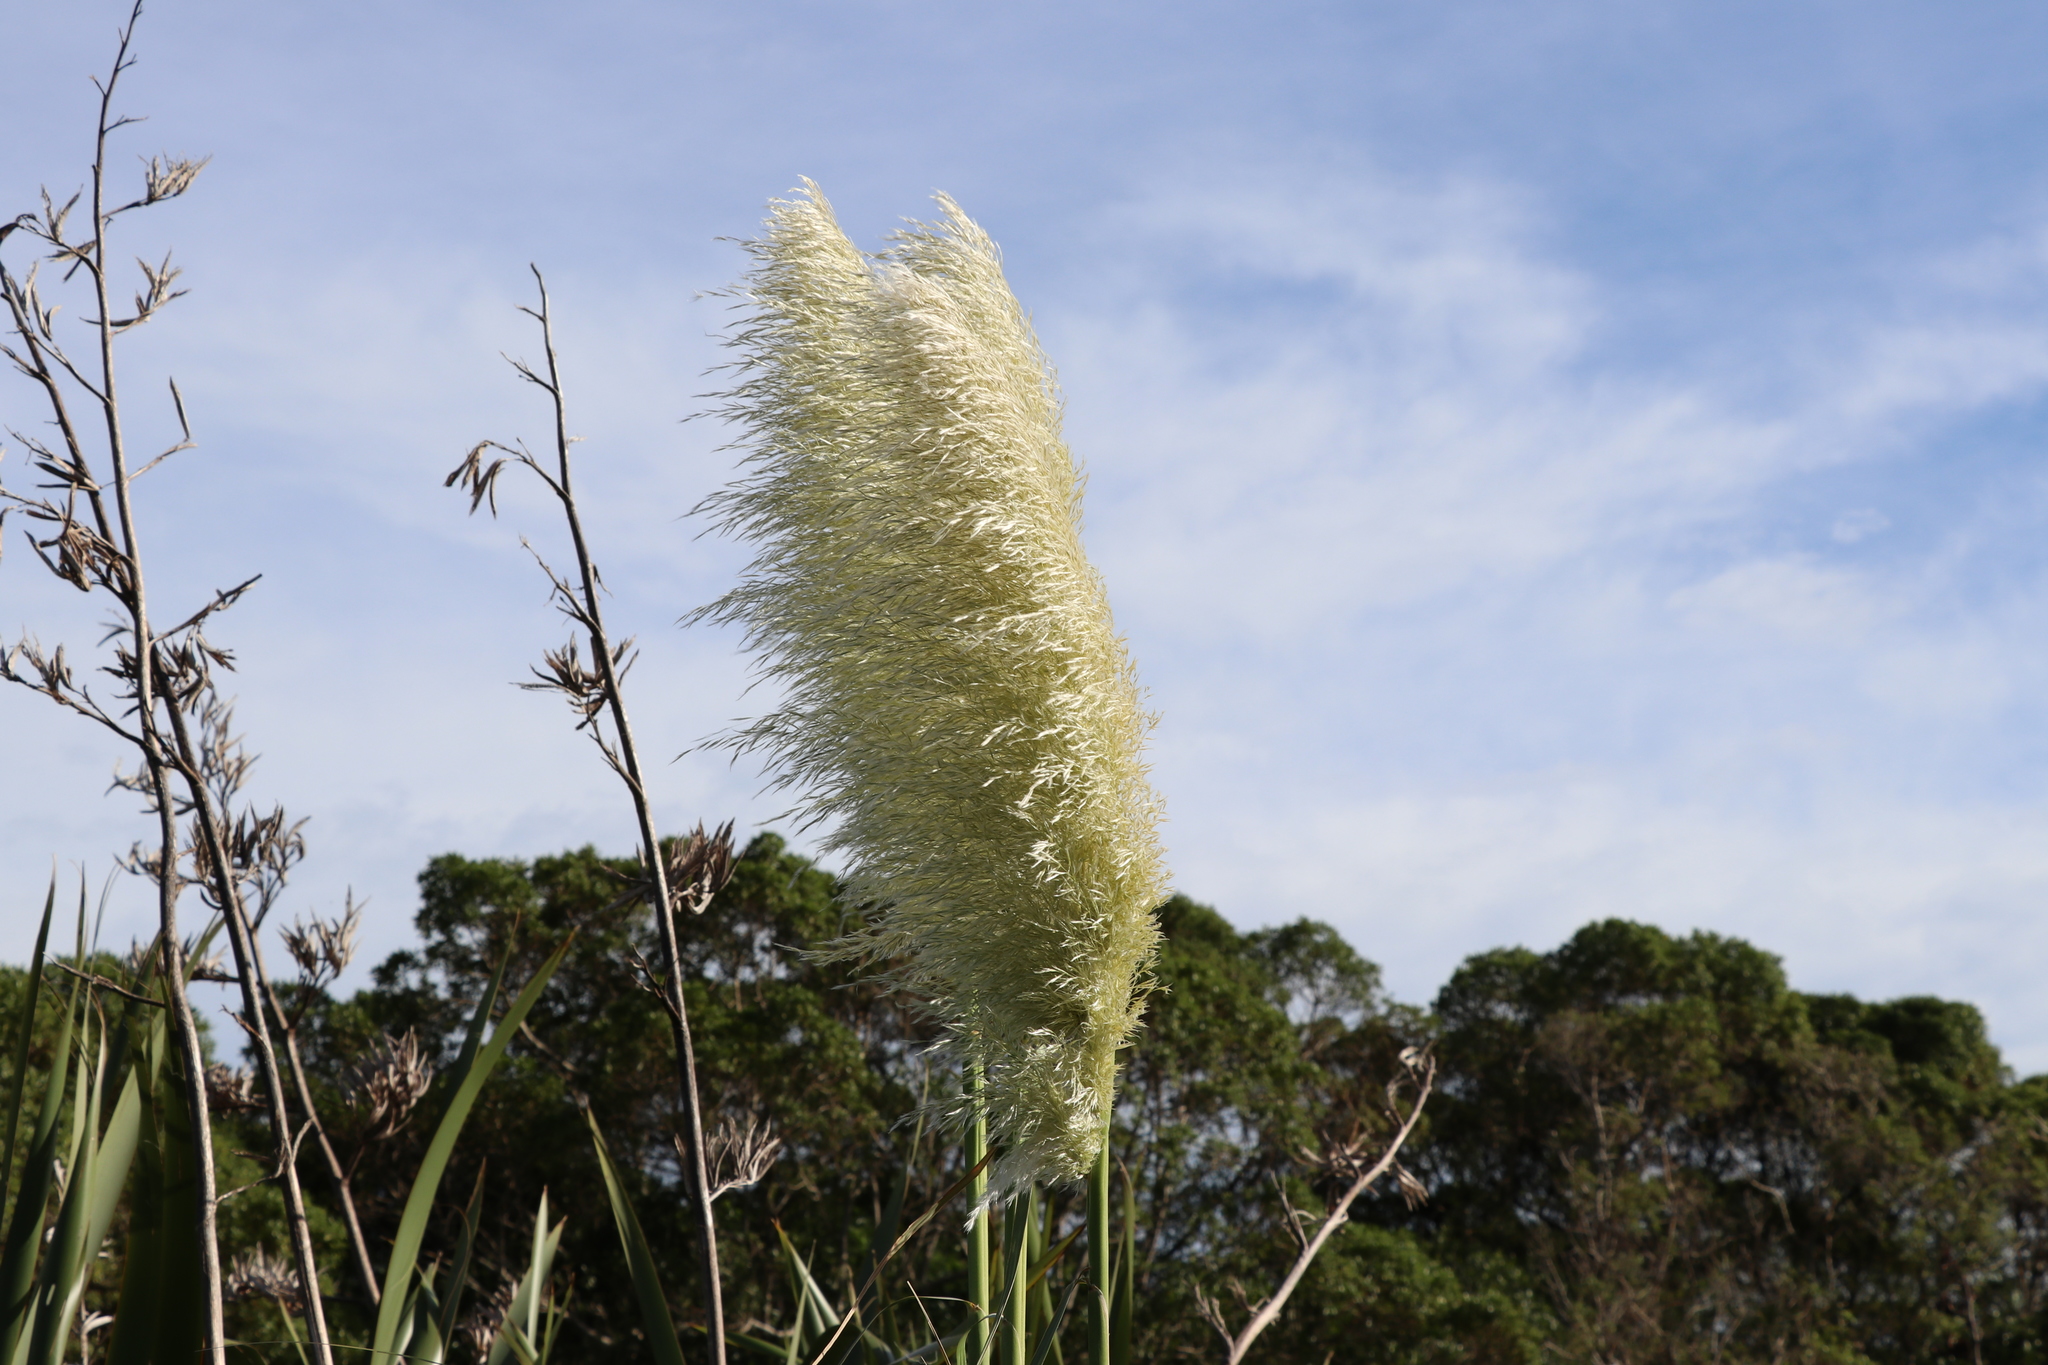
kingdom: Plantae
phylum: Tracheophyta
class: Liliopsida
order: Poales
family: Poaceae
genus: Cortaderia
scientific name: Cortaderia selloana
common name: Uruguayan pampas grass
